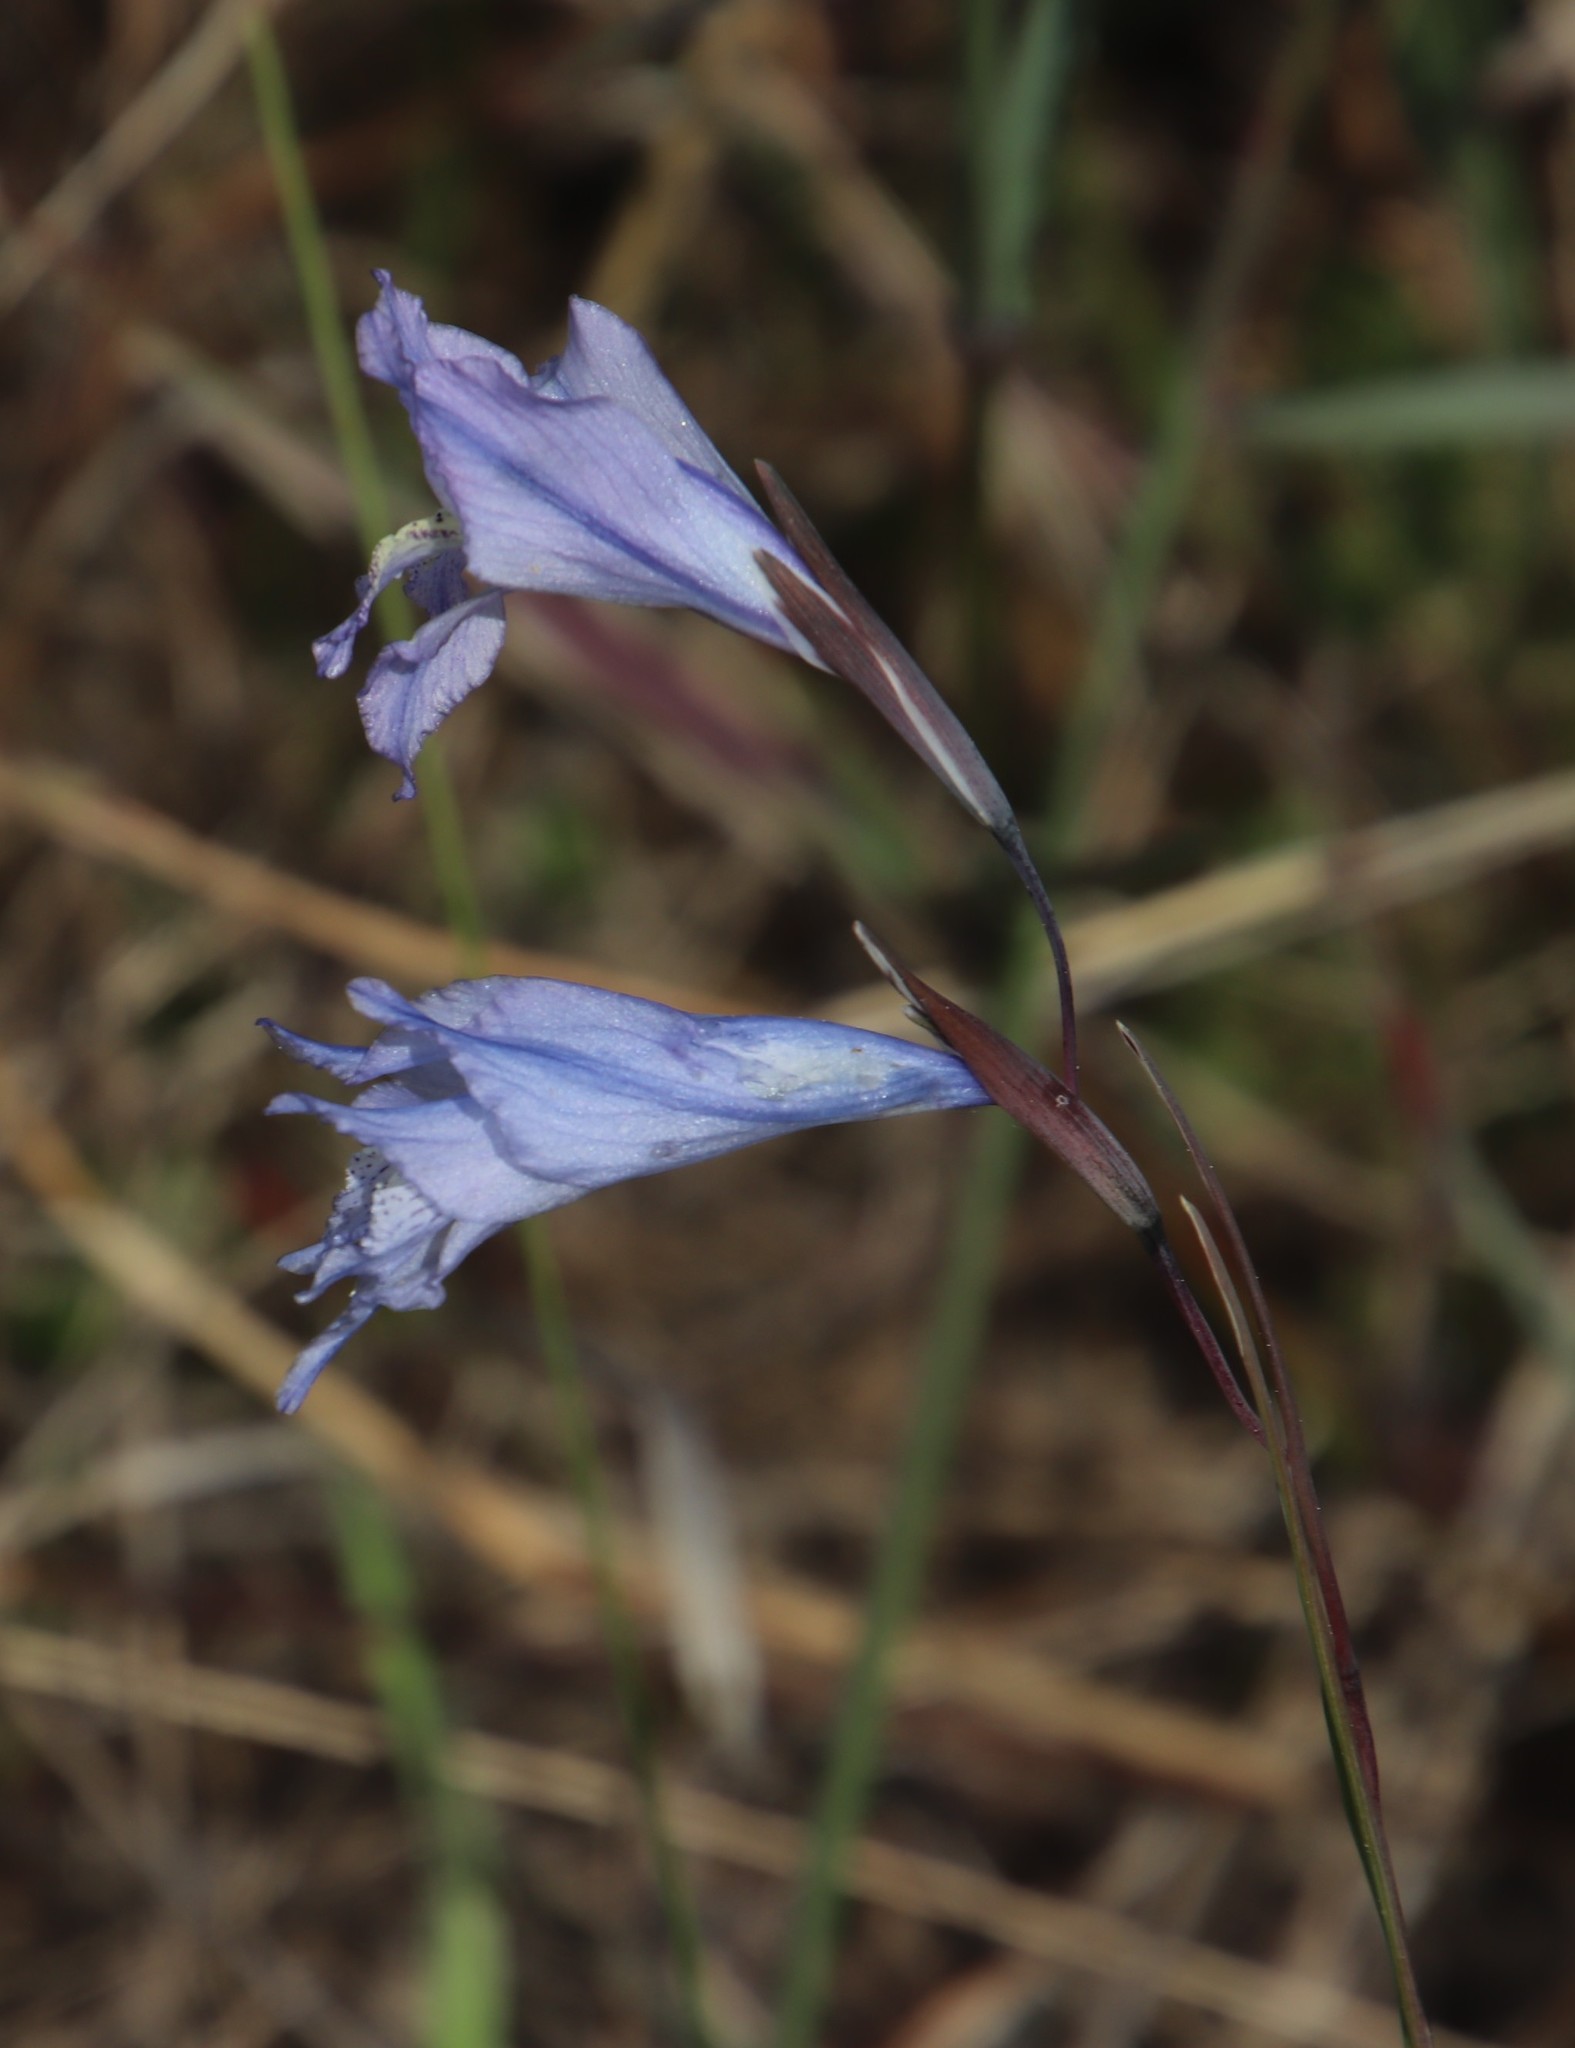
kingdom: Plantae
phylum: Tracheophyta
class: Liliopsida
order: Asparagales
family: Iridaceae
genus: Gladiolus
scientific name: Gladiolus gracilis
